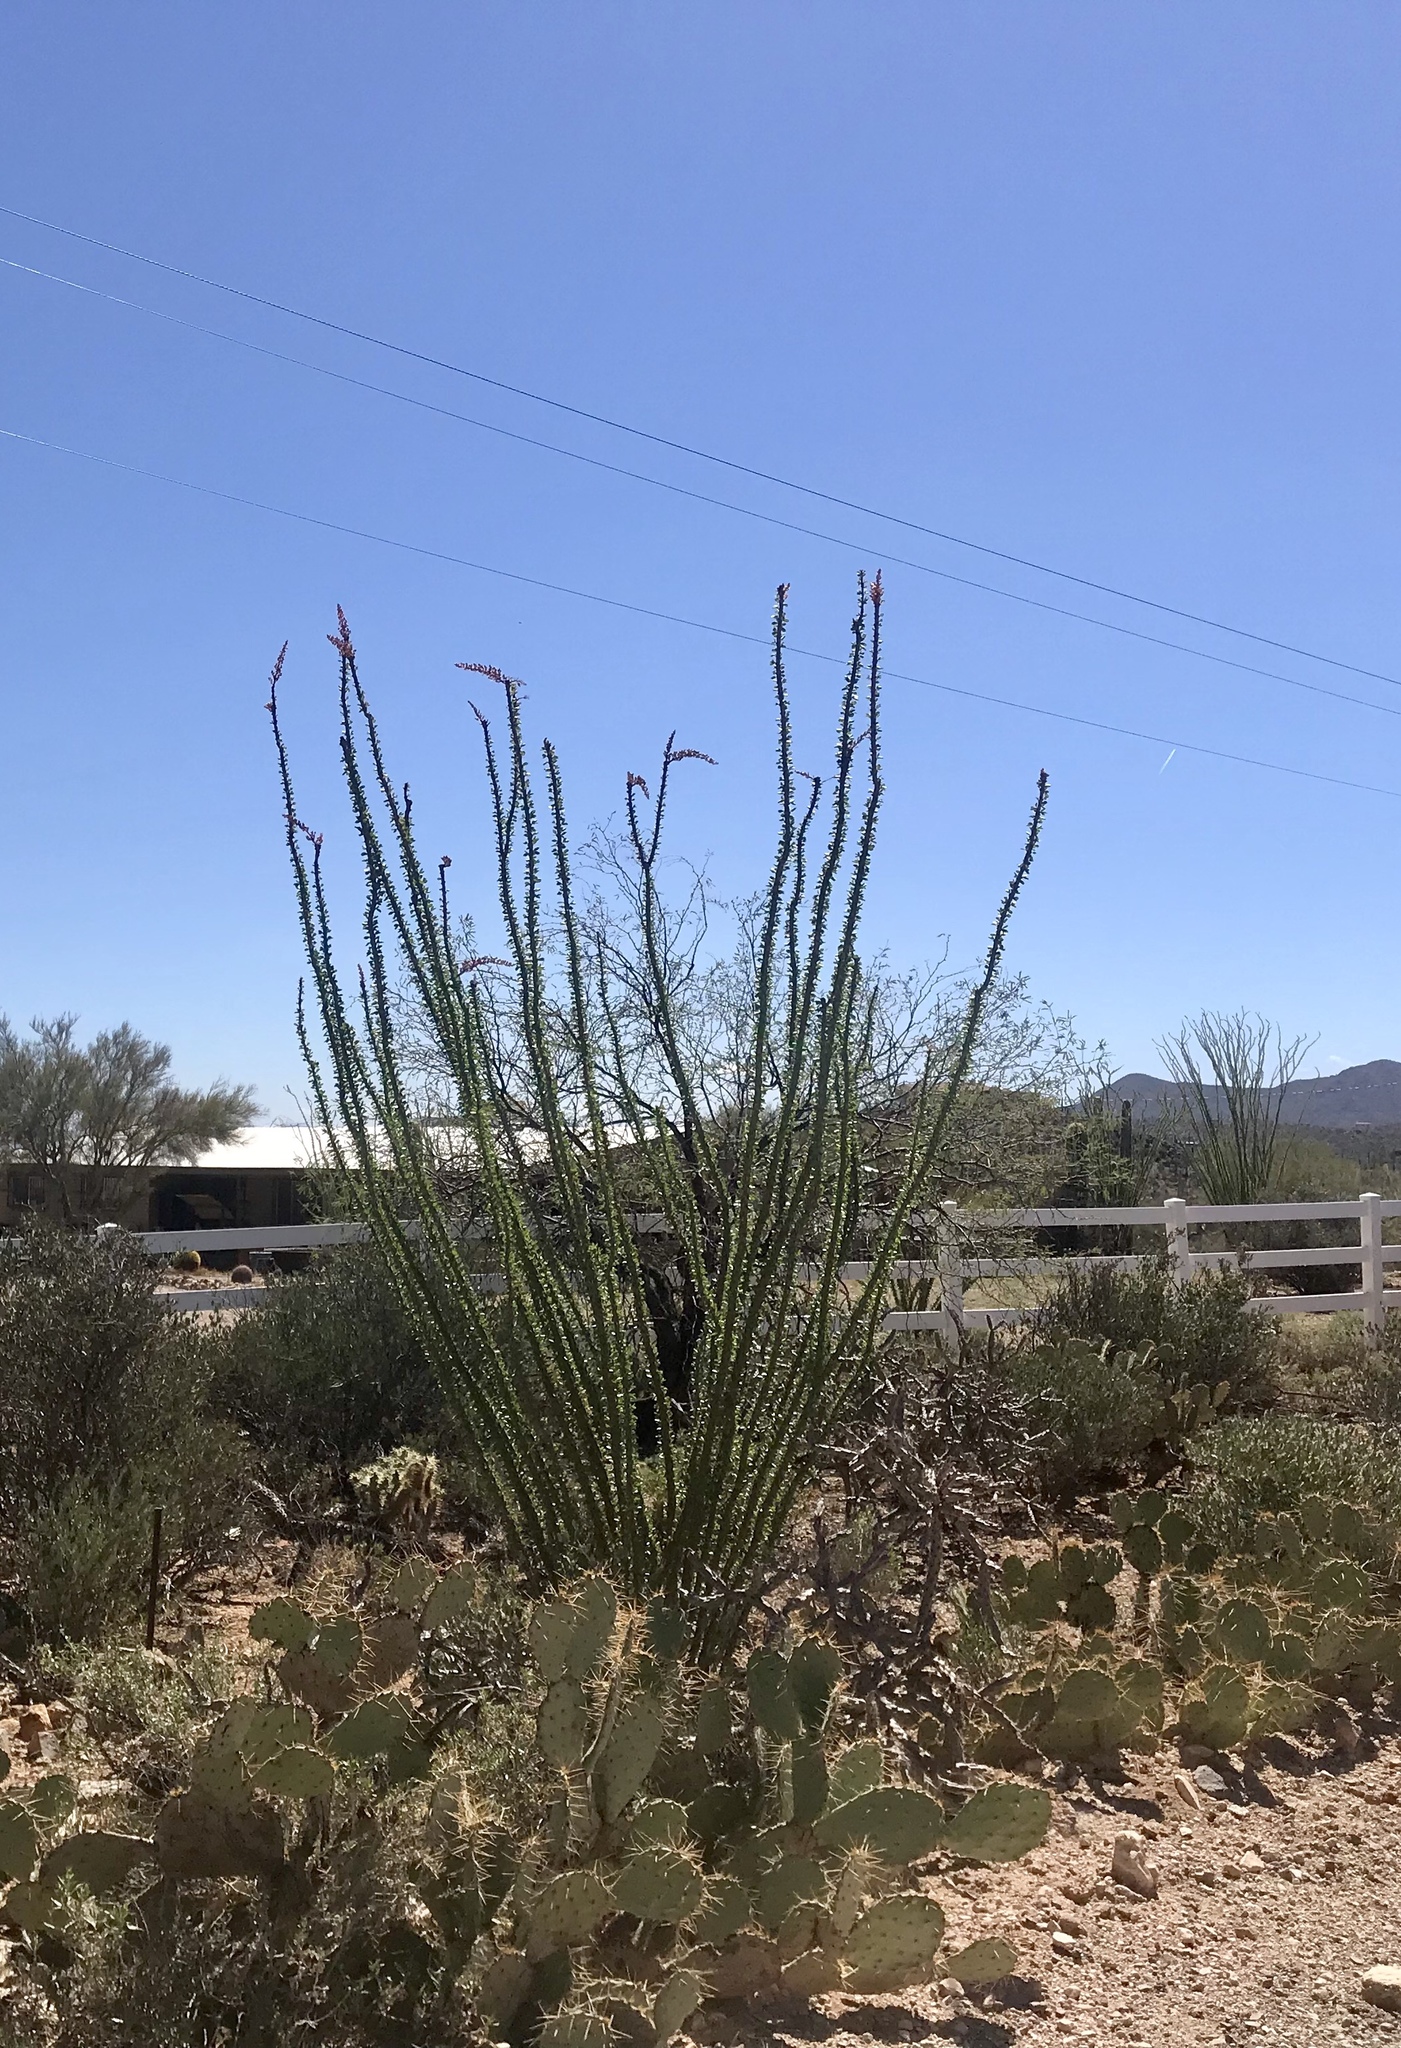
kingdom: Plantae
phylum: Tracheophyta
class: Magnoliopsida
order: Ericales
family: Fouquieriaceae
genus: Fouquieria
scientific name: Fouquieria splendens
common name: Vine-cactus
